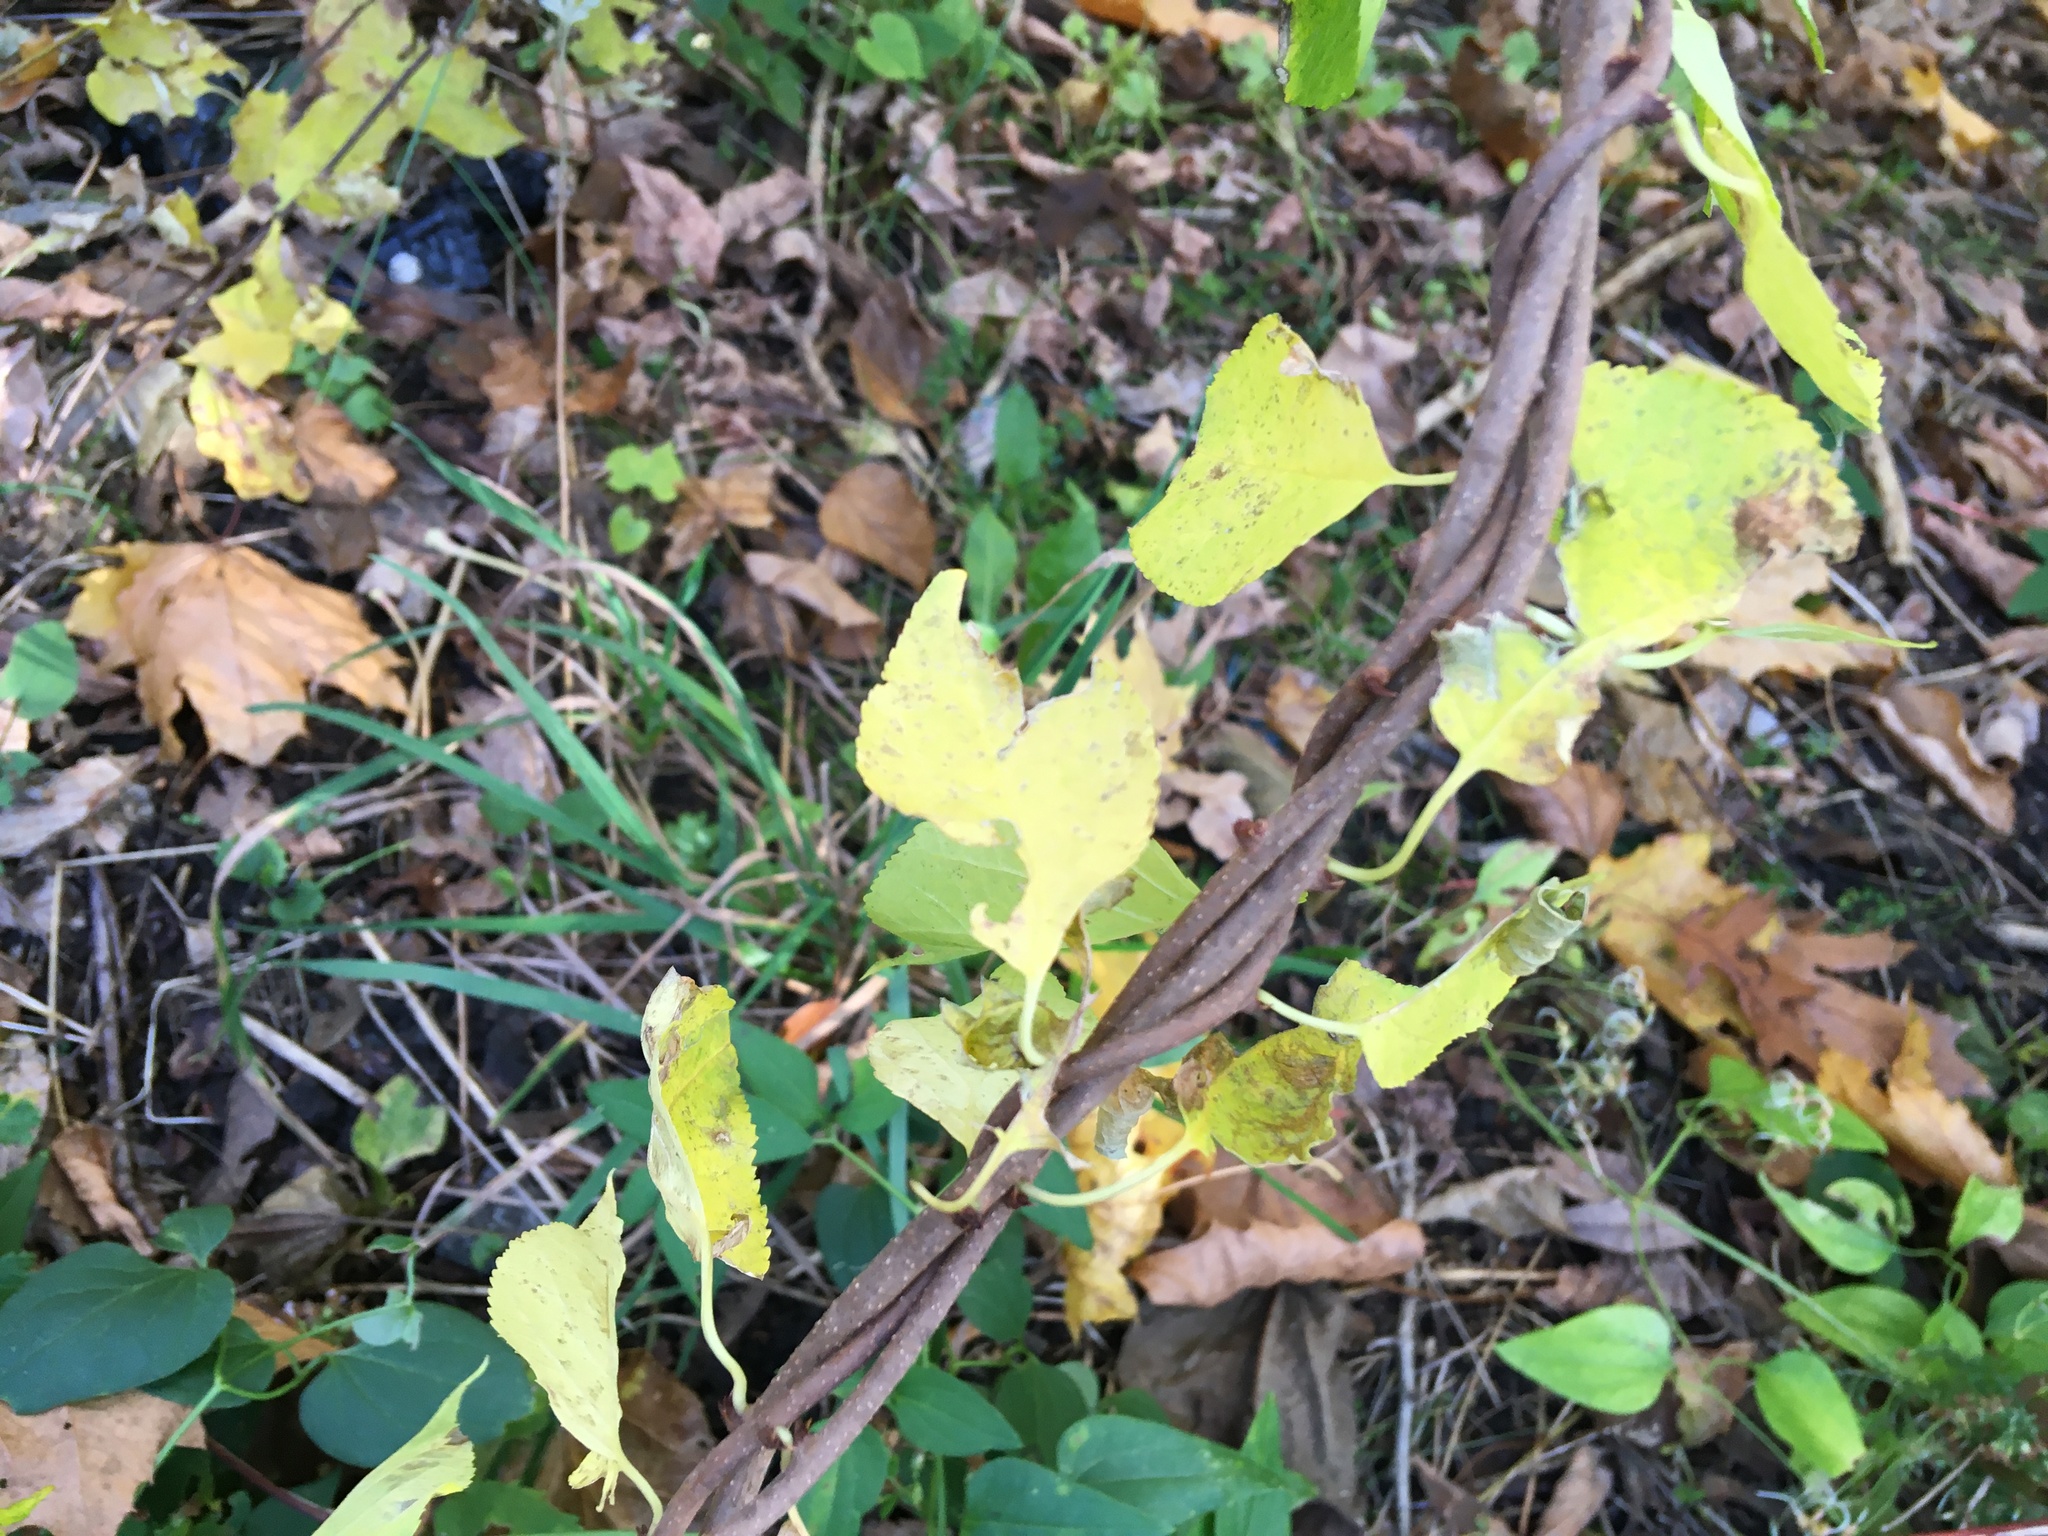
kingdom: Plantae
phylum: Tracheophyta
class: Magnoliopsida
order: Celastrales
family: Celastraceae
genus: Celastrus
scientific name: Celastrus orbiculatus
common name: Oriental bittersweet
